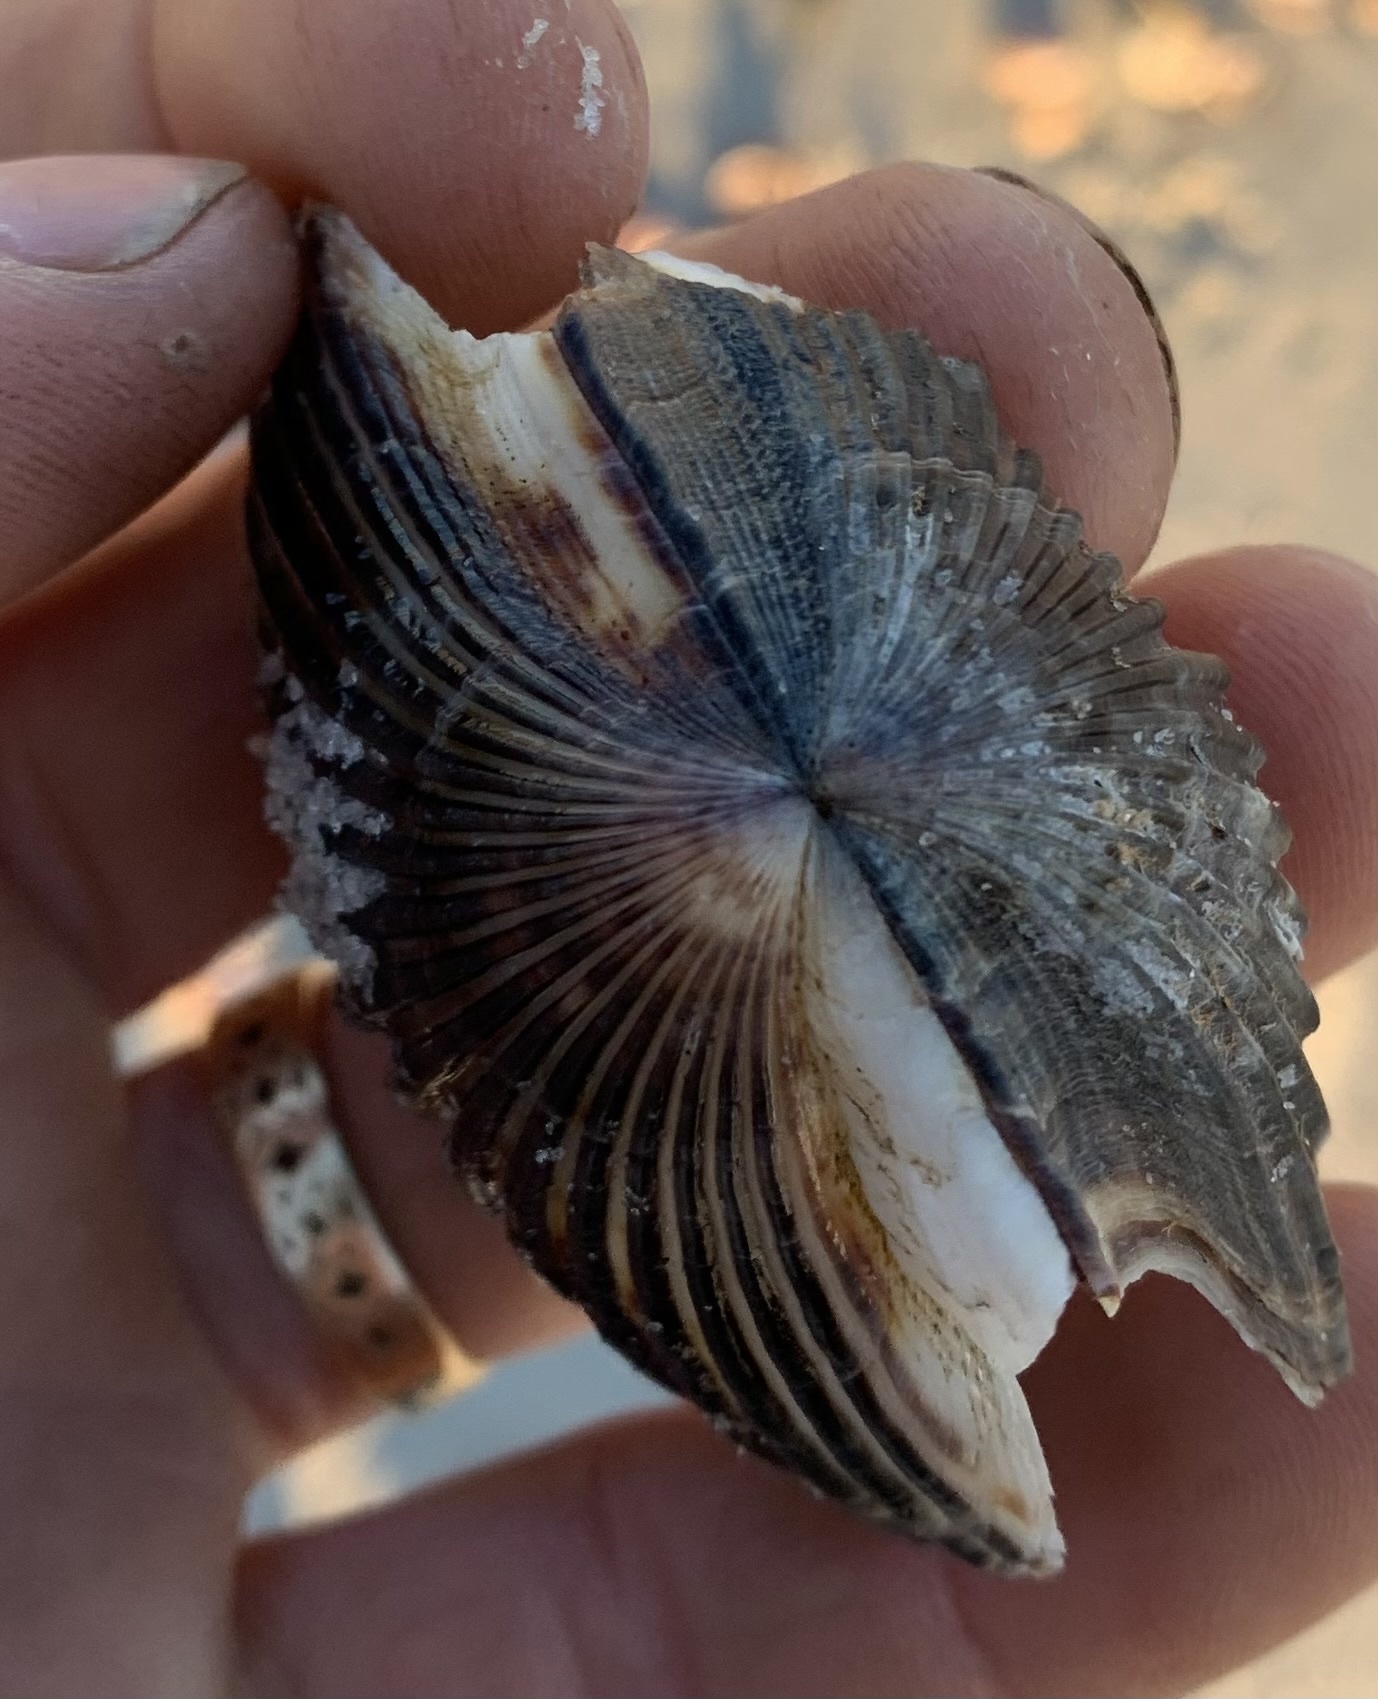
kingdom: Animalia
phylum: Mollusca
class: Bivalvia
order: Pectinida
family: Pectinidae
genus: Argopecten
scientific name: Argopecten irradians
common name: Atlantic bay scallop
